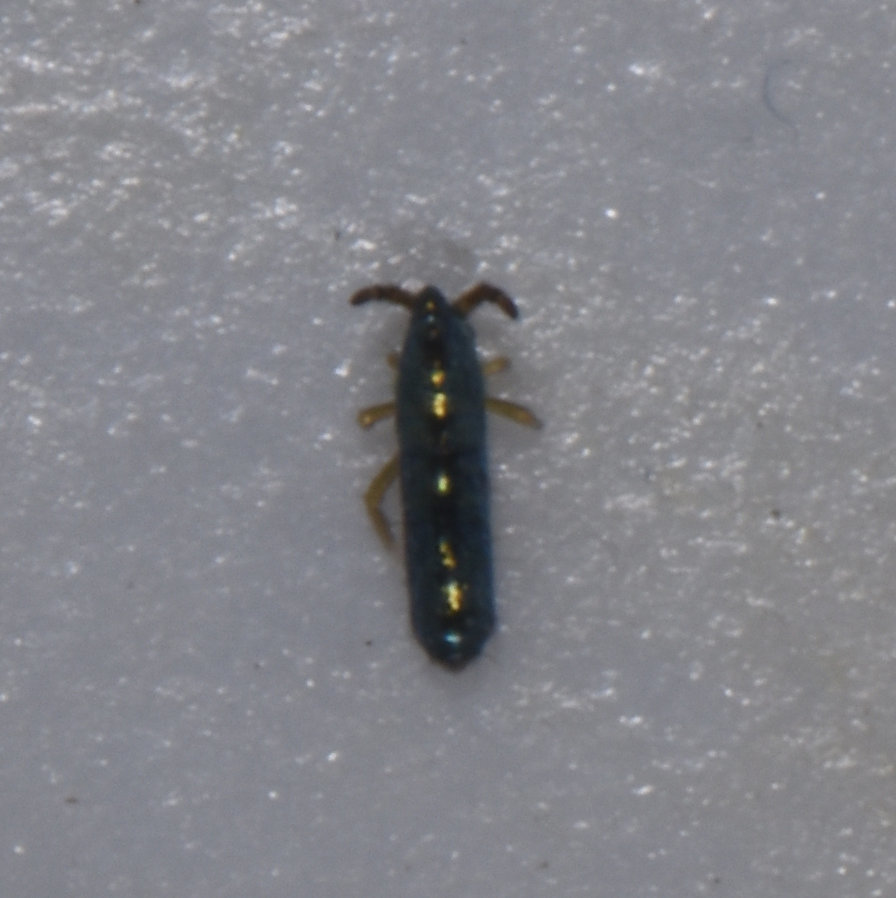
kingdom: Animalia
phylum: Arthropoda
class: Collembola
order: Entomobryomorpha
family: Entomobryidae
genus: Lepidocyrtus
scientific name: Lepidocyrtus paradoxus
